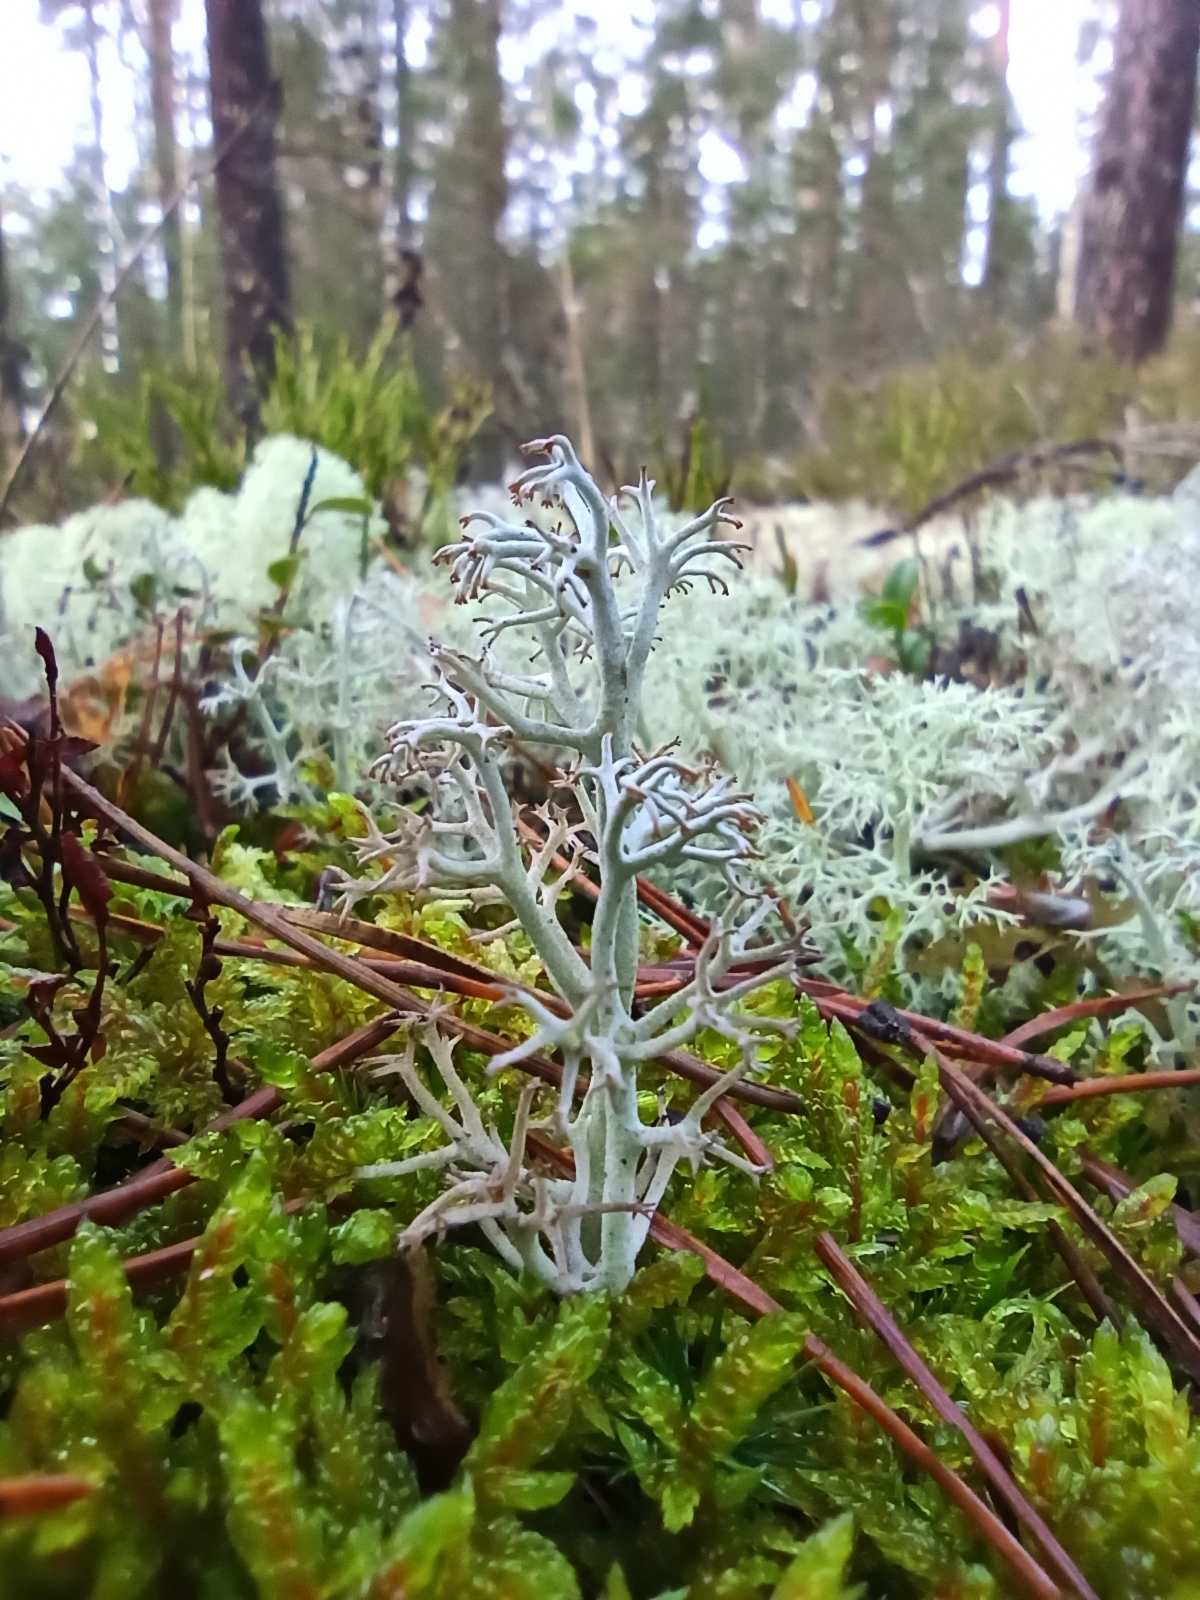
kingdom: Fungi
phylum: Ascomycota
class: Lecanoromycetes
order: Lecanorales
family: Cladoniaceae
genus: Cladonia
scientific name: Cladonia rangiferina
